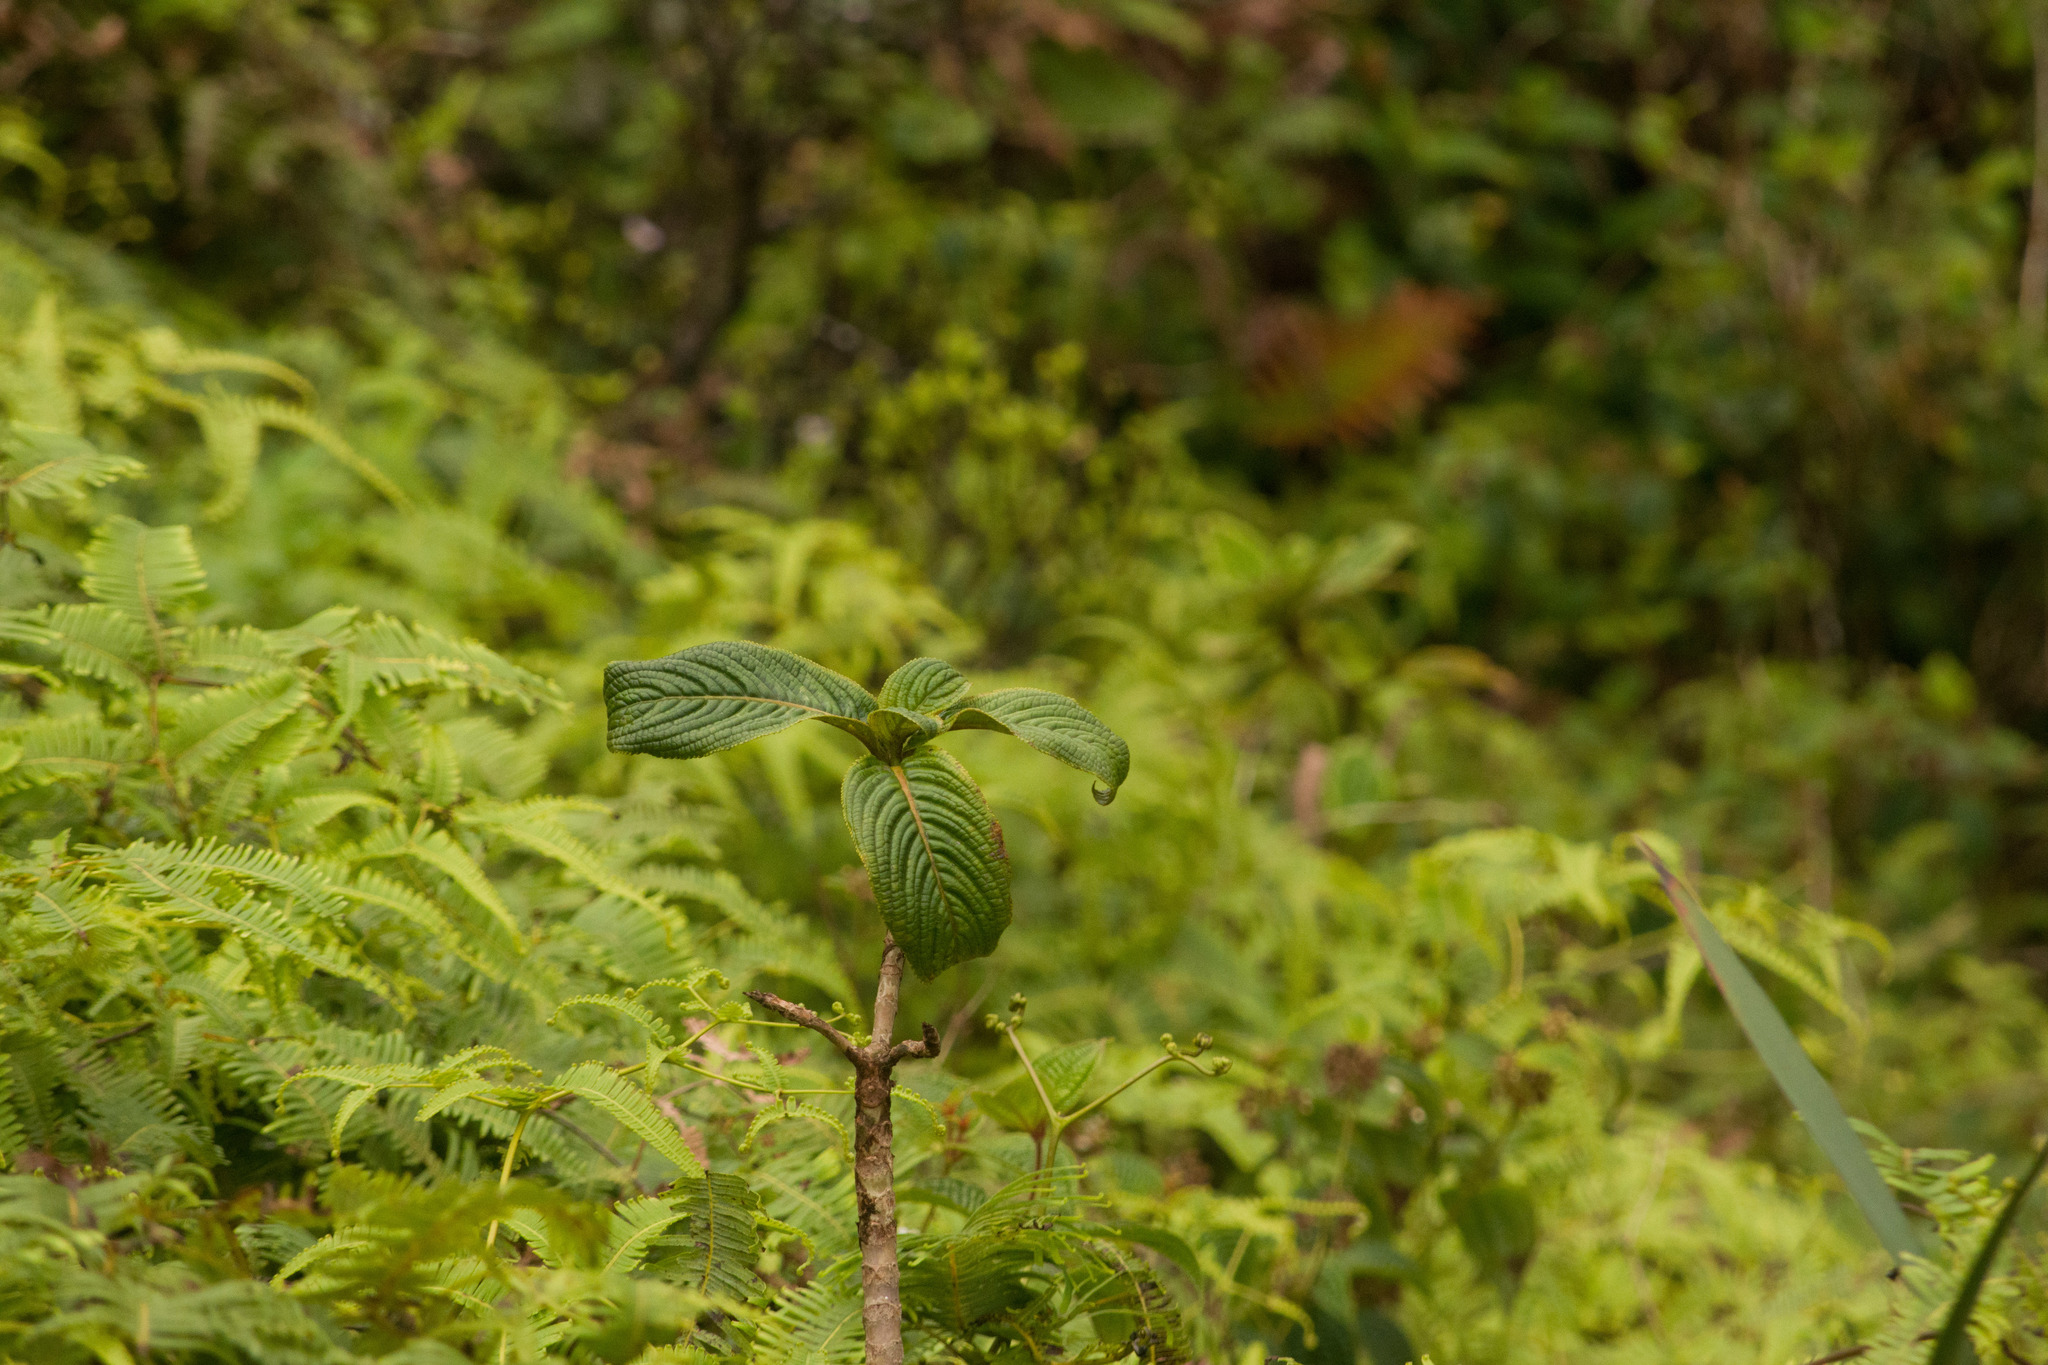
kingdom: Plantae
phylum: Tracheophyta
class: Magnoliopsida
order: Cornales
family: Hydrangeaceae
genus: Hydrangea
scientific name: Hydrangea arguta
